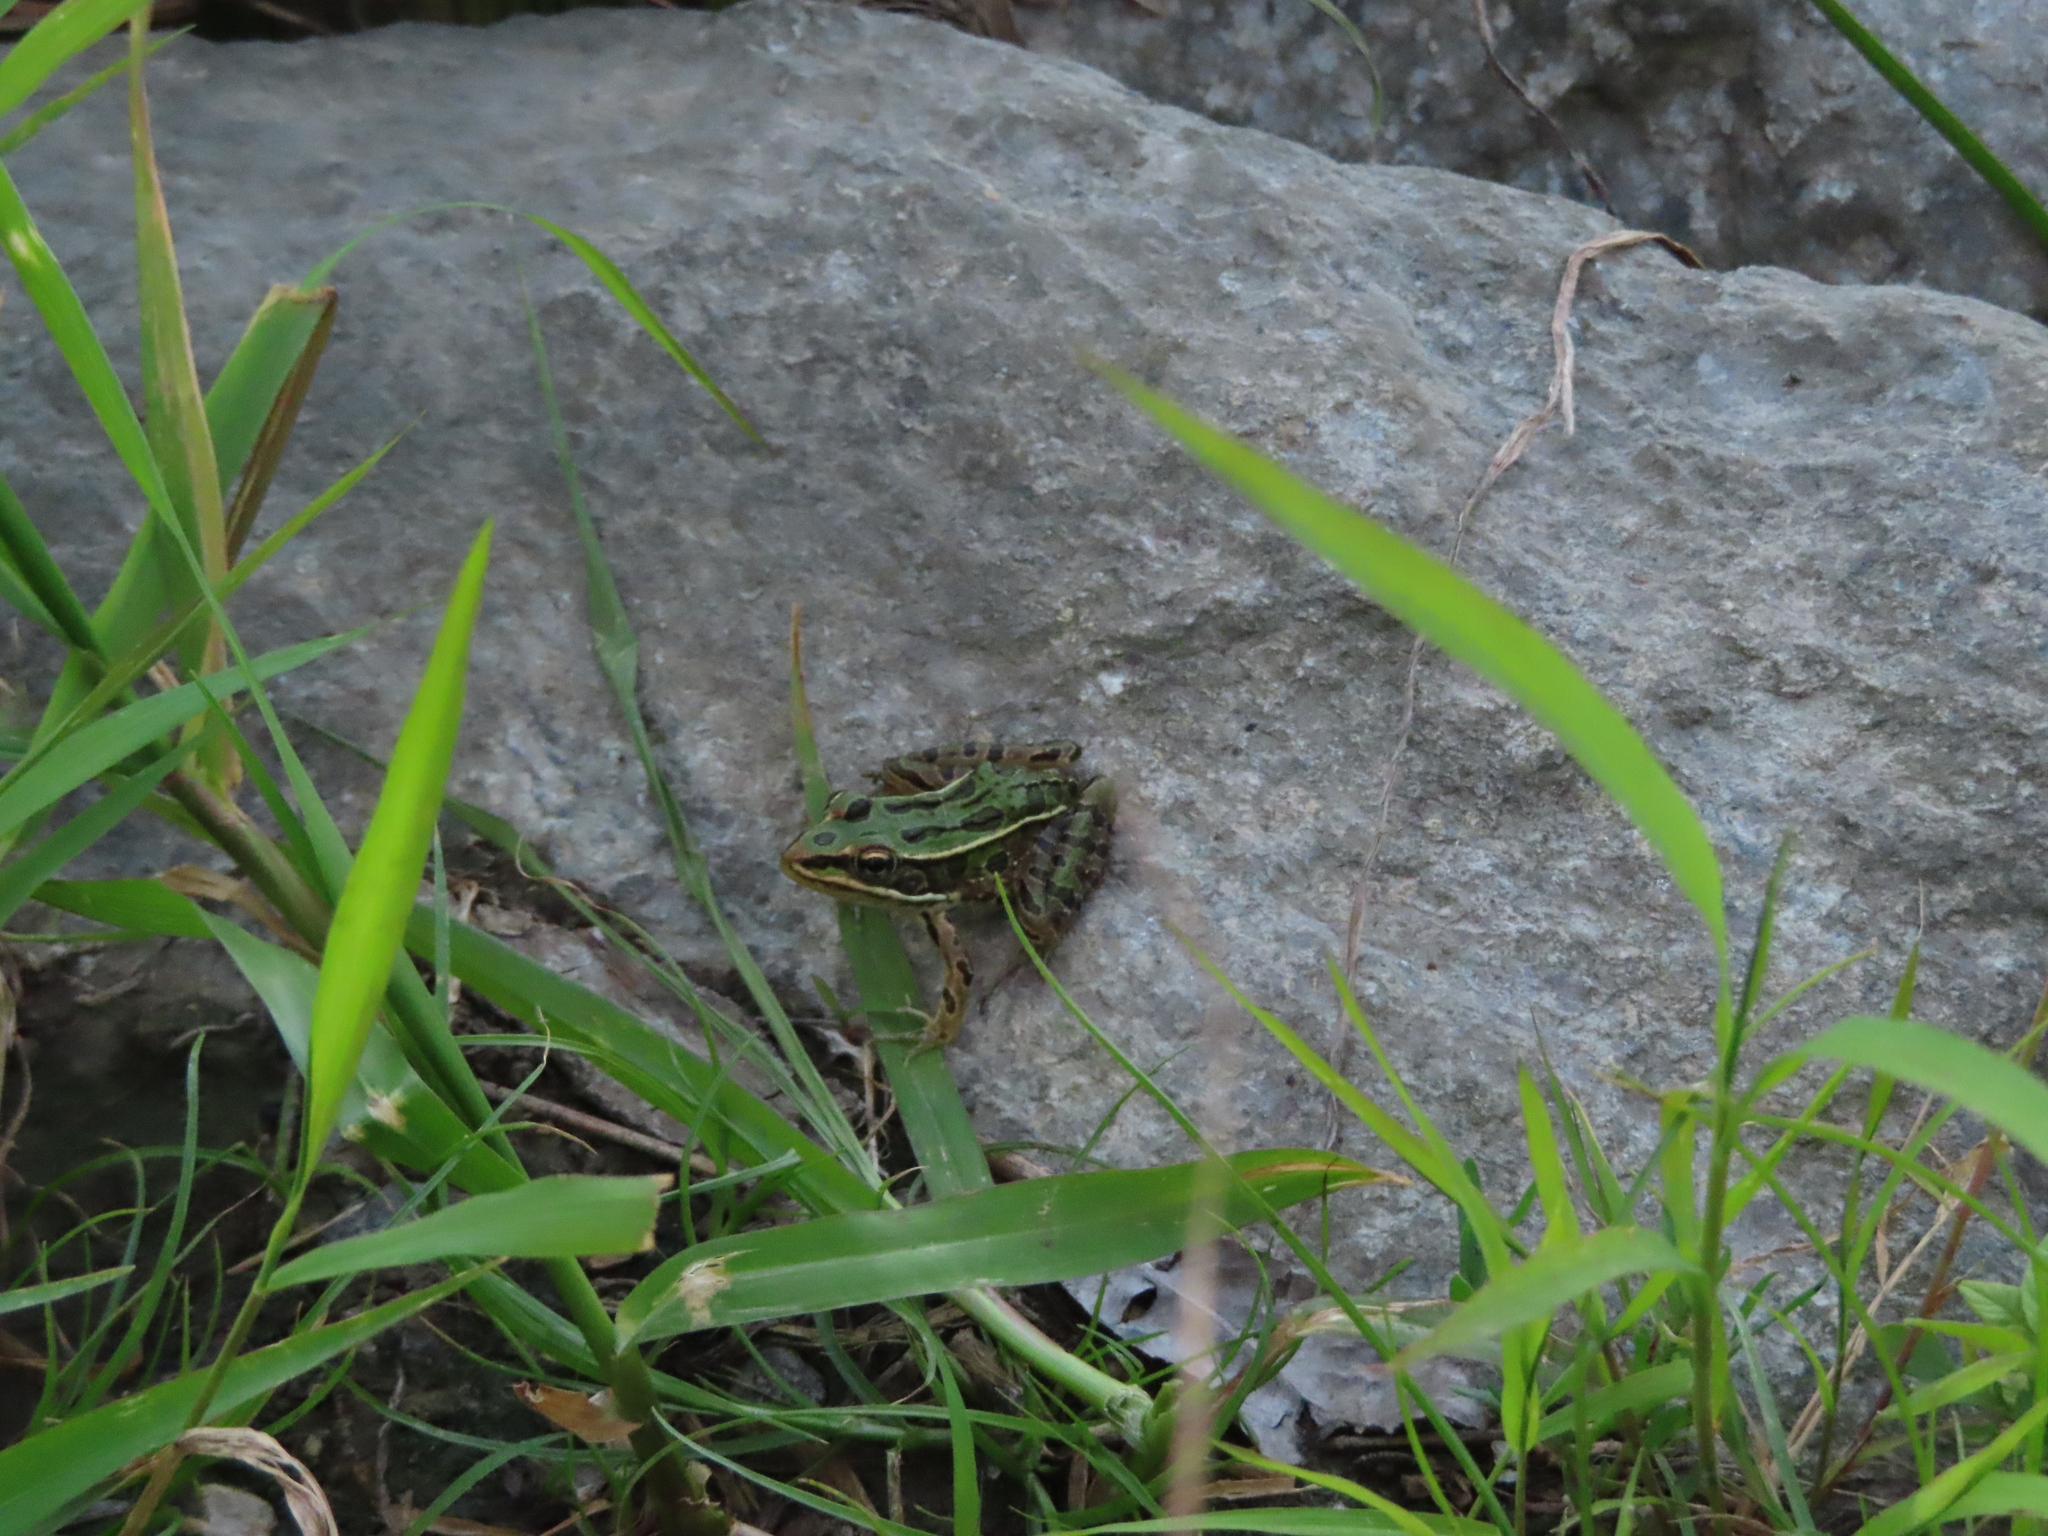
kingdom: Animalia
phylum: Chordata
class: Amphibia
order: Anura
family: Ranidae
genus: Lithobates
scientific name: Lithobates pipiens
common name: Northern leopard frog
